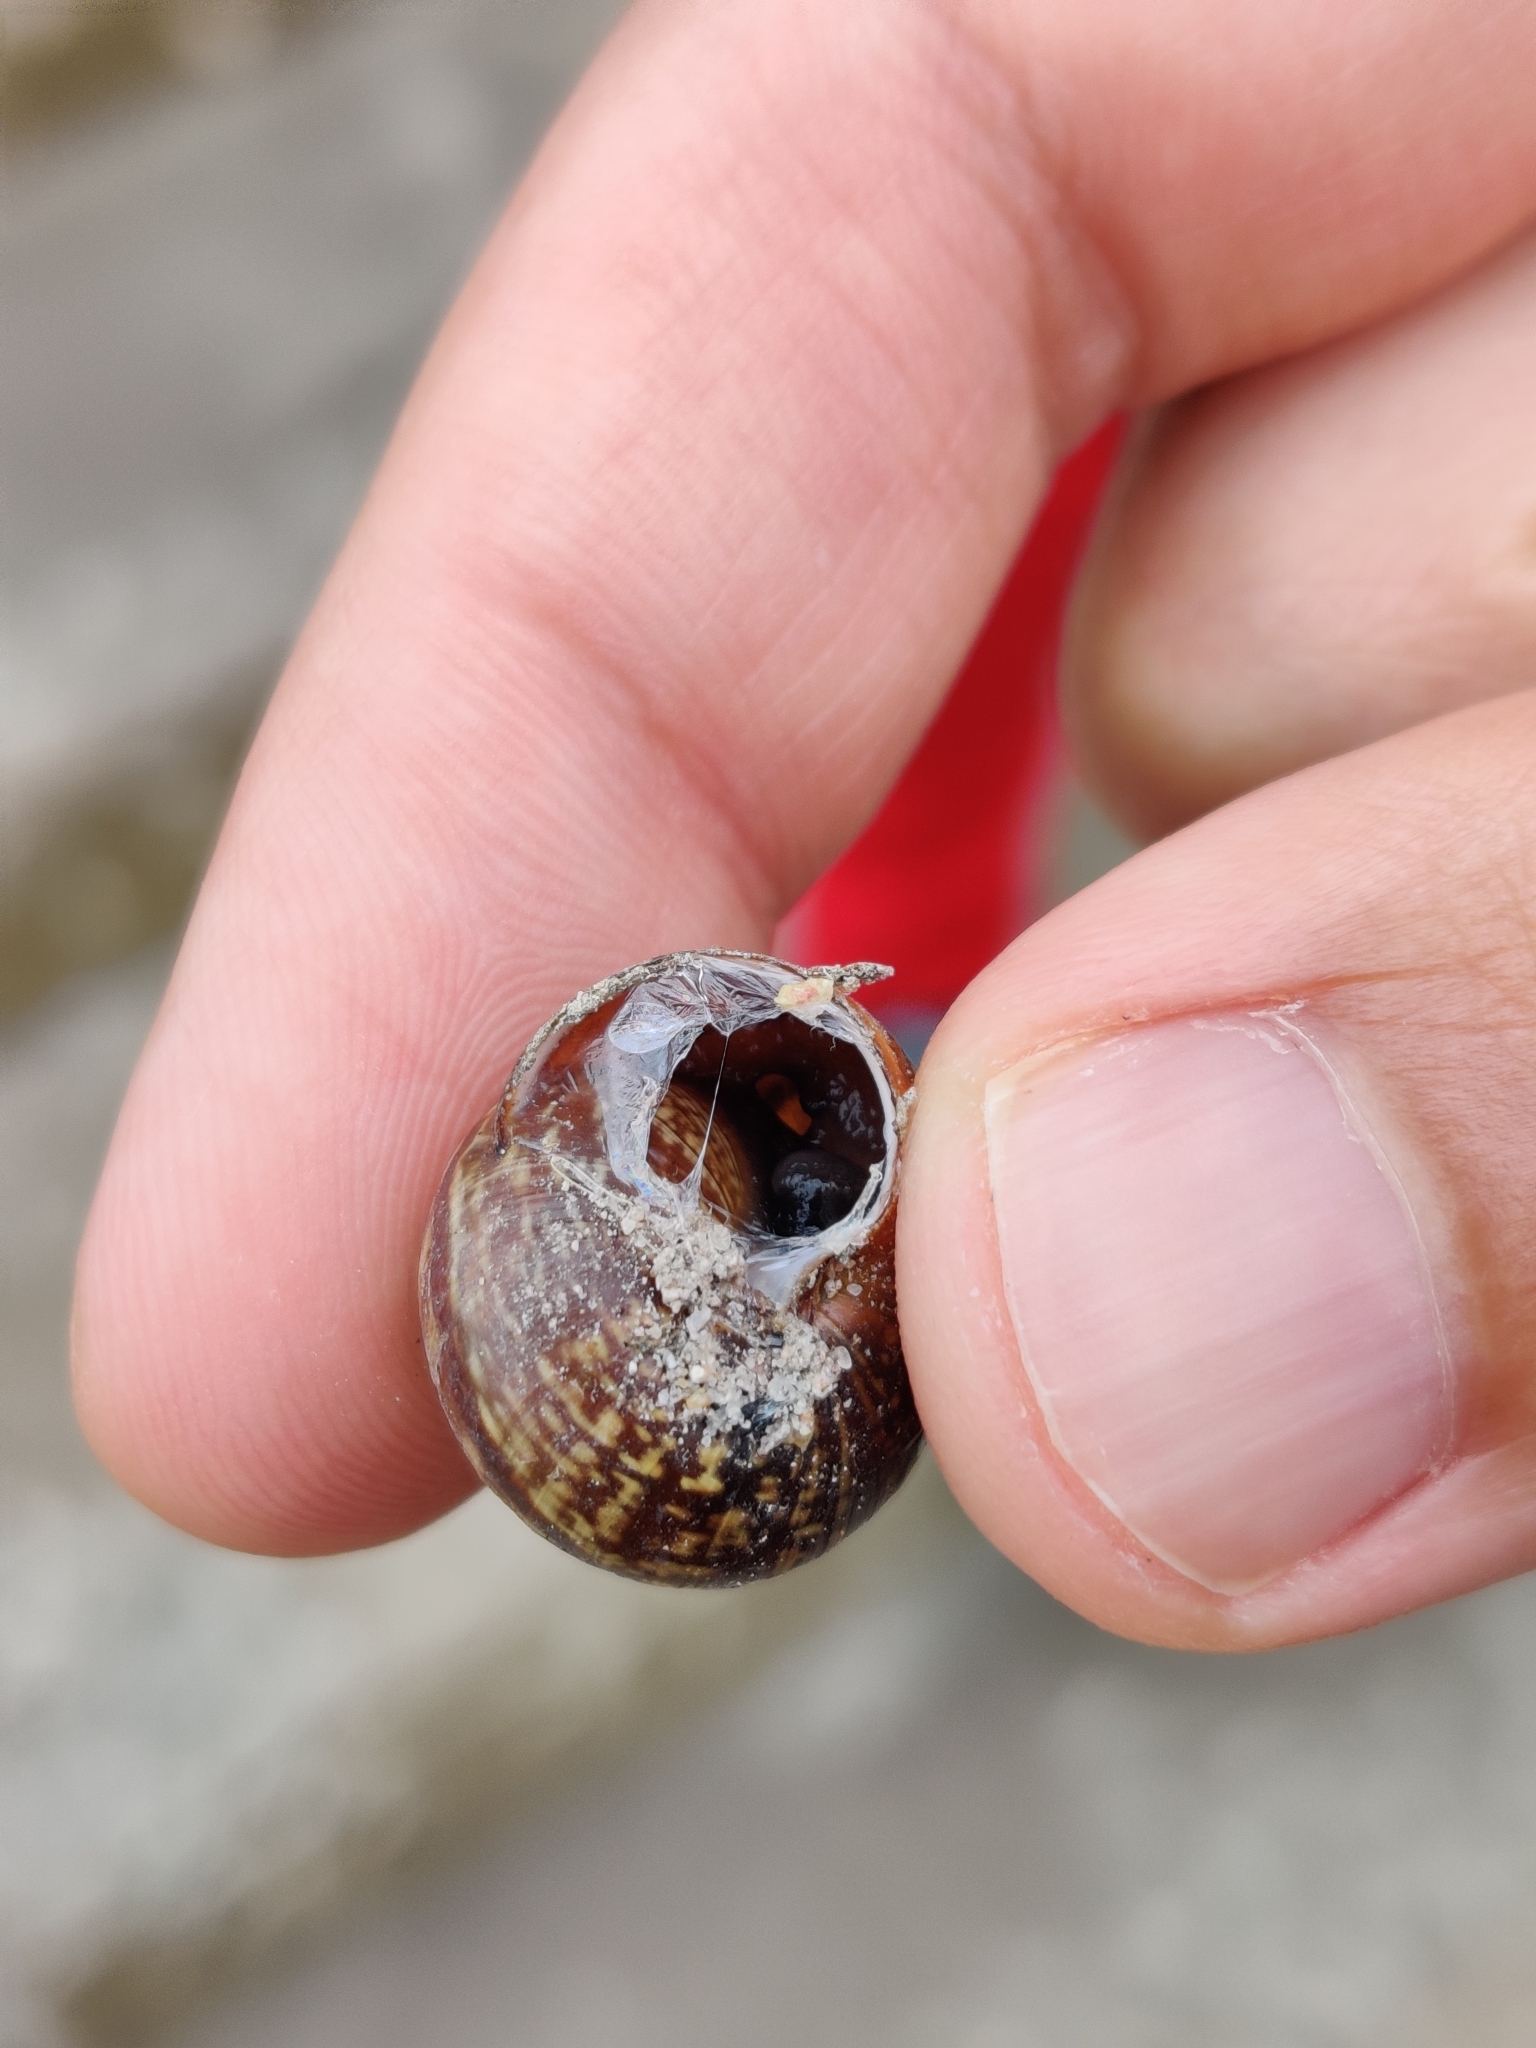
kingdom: Animalia
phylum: Mollusca
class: Gastropoda
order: Stylommatophora
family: Helicidae
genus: Arianta
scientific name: Arianta arbustorum
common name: Copse snail
